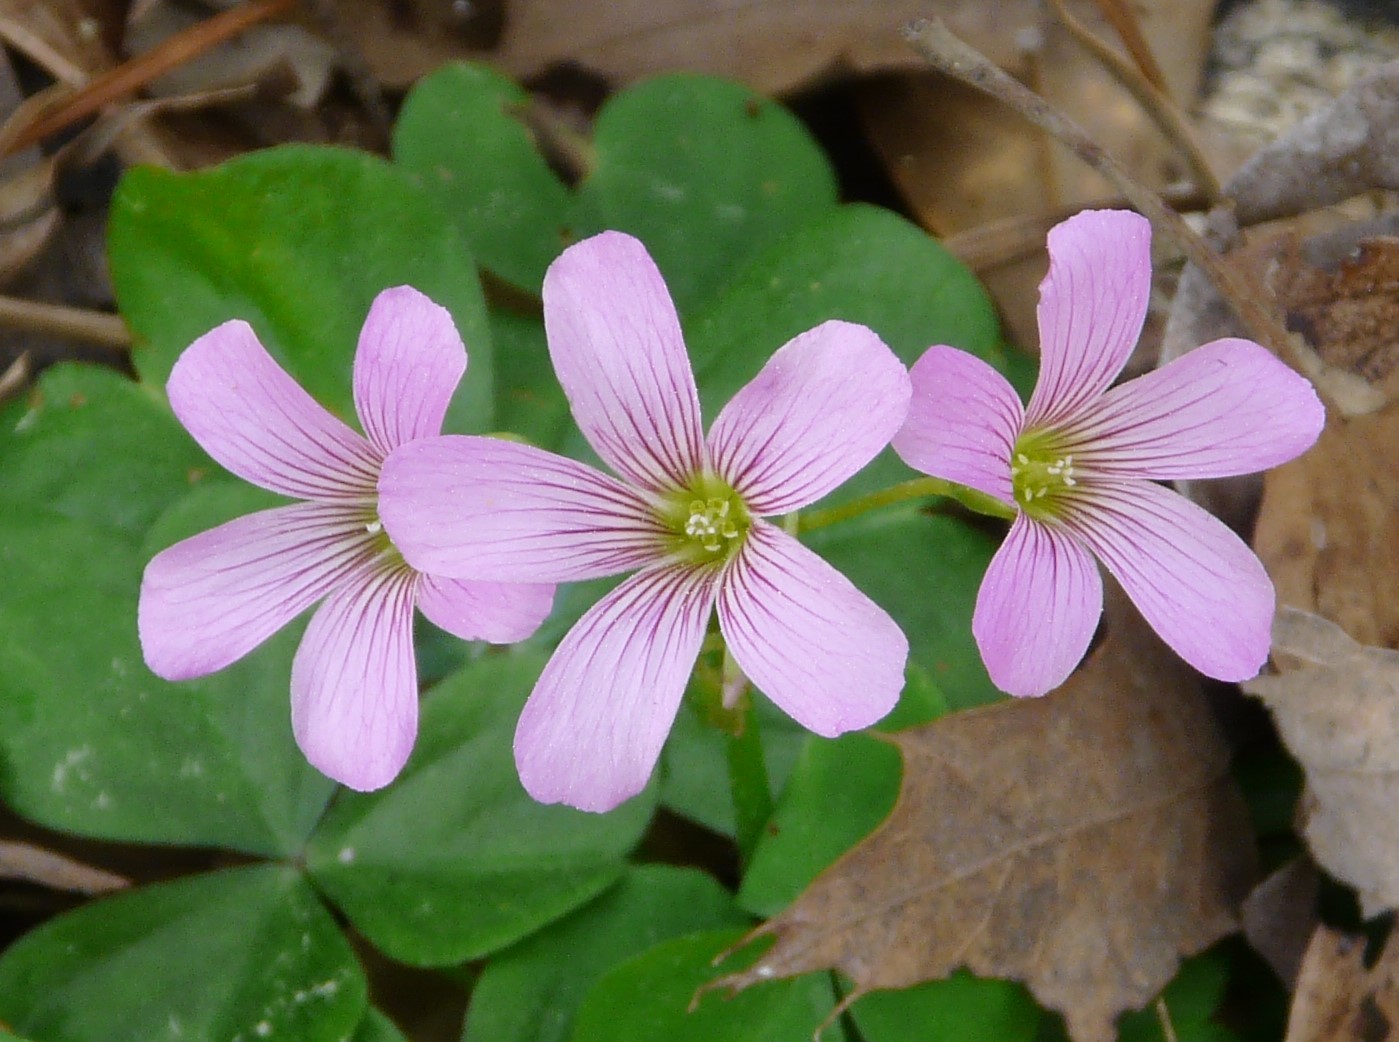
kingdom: Plantae
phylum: Tracheophyta
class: Magnoliopsida
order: Oxalidales
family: Oxalidaceae
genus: Oxalis
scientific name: Oxalis debilis
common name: Large-flowered pink-sorrel
